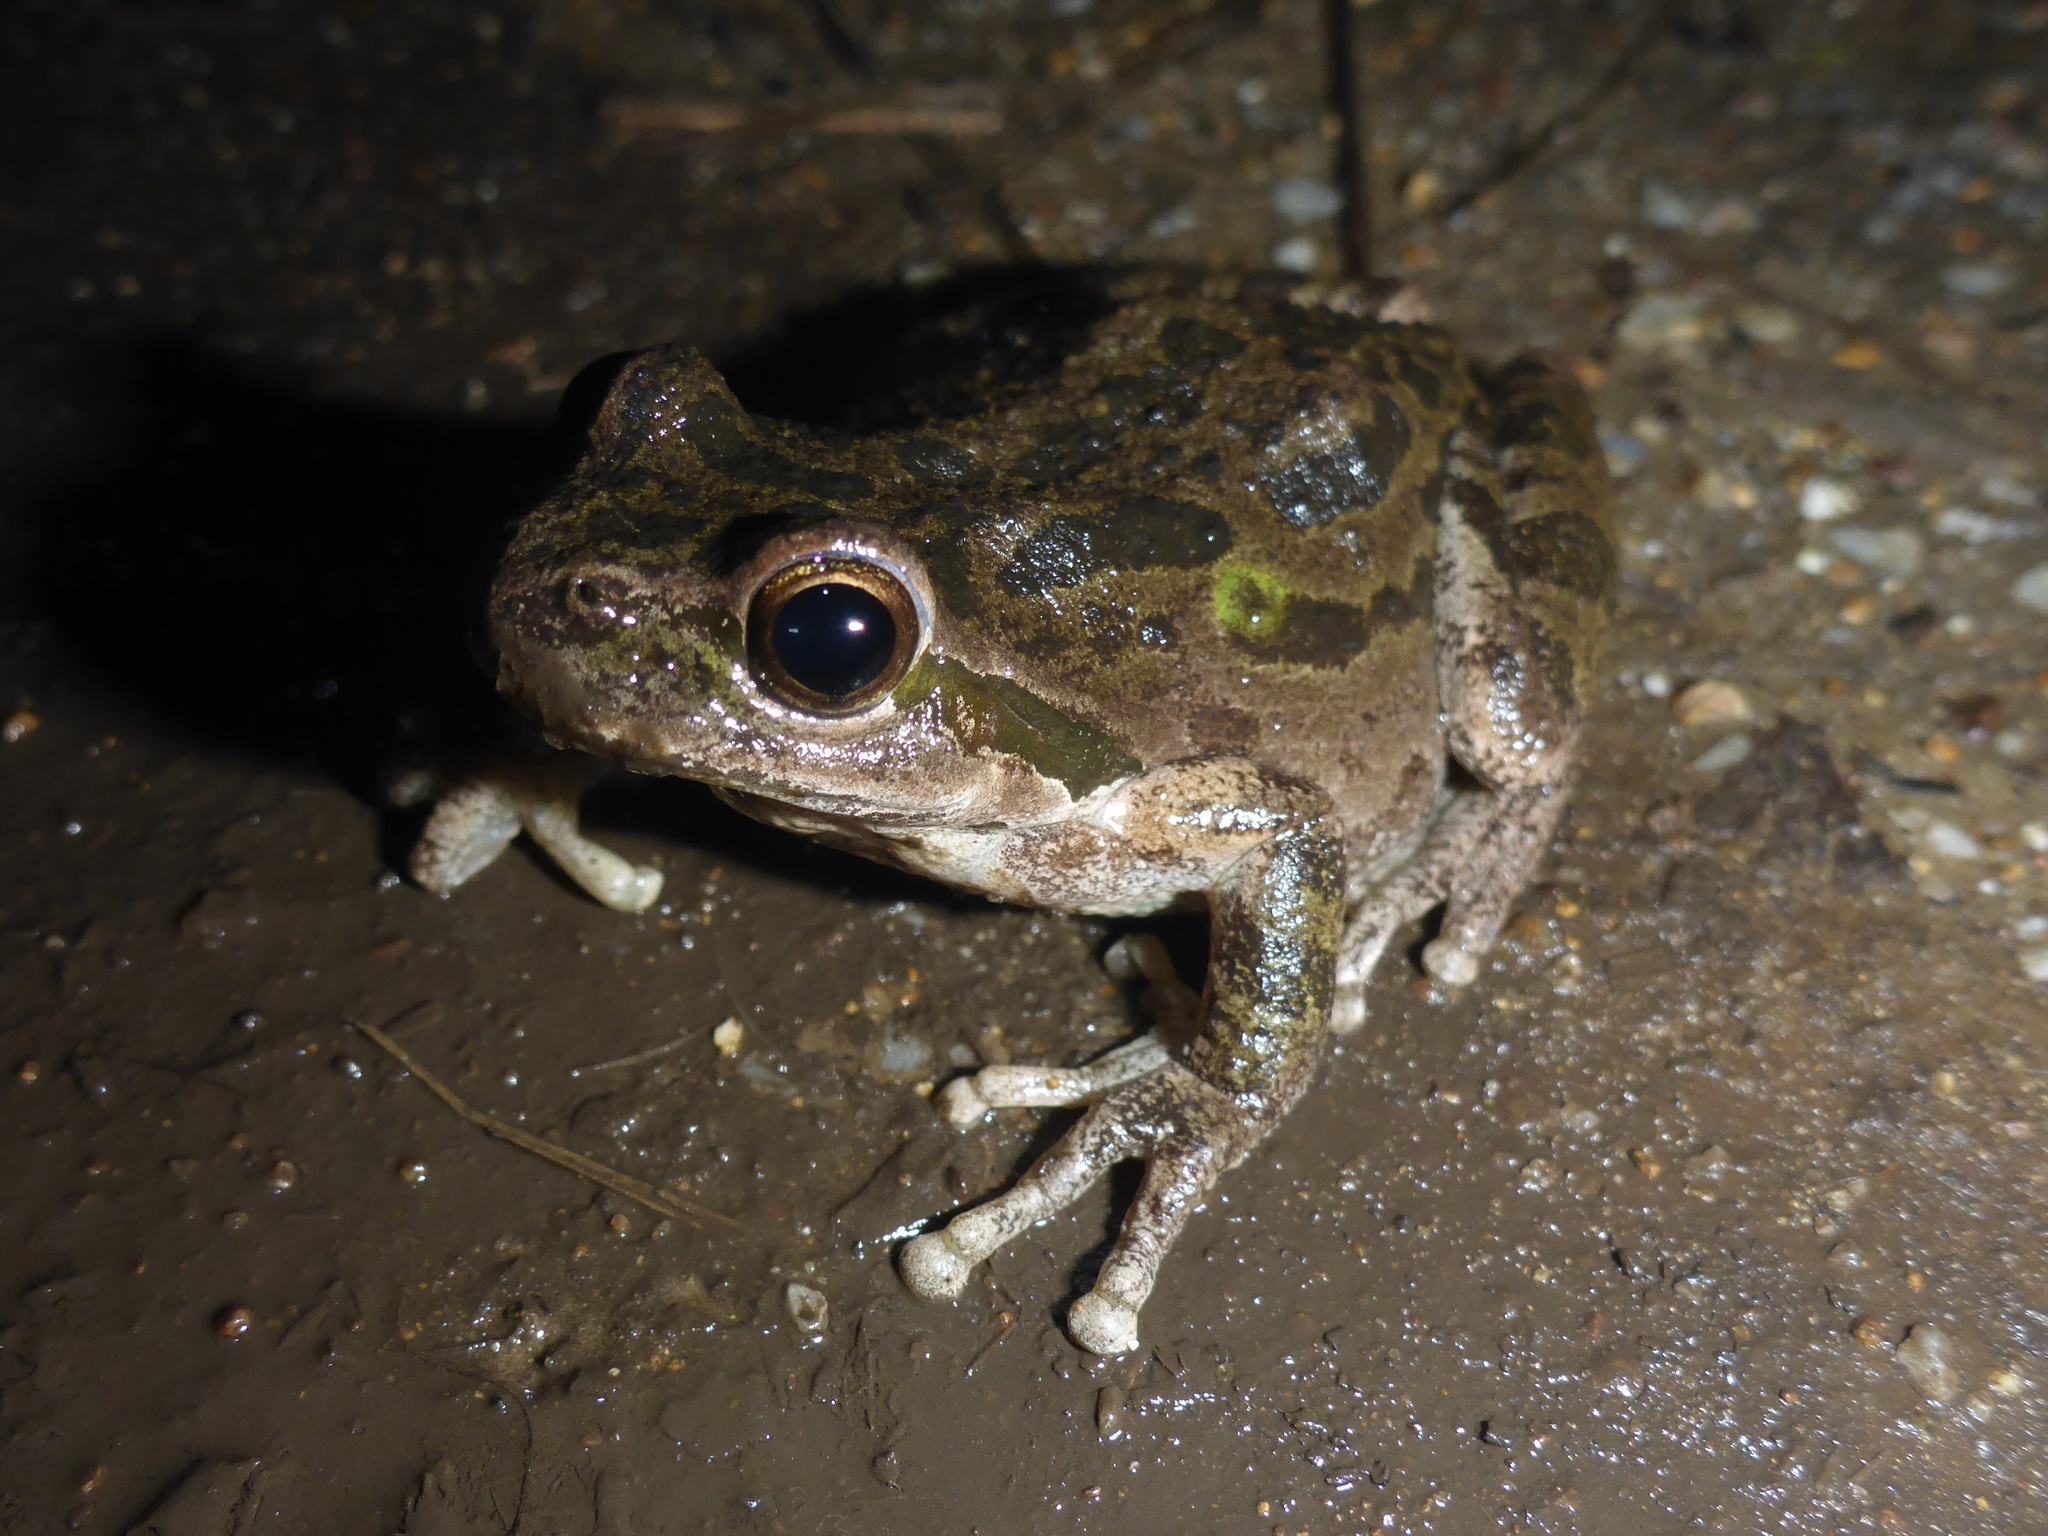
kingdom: Animalia
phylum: Chordata
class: Amphibia
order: Anura
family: Hylidae
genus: Pseudacris
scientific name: Pseudacris regilla
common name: Pacific chorus frog
